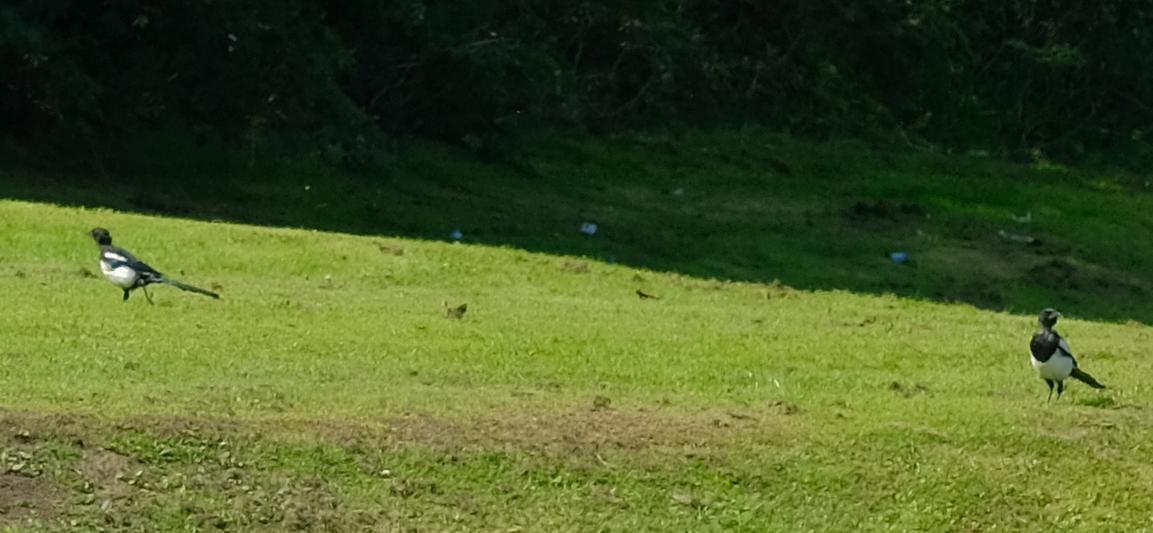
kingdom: Animalia
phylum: Chordata
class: Aves
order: Passeriformes
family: Corvidae
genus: Pica
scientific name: Pica pica
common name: Eurasian magpie
